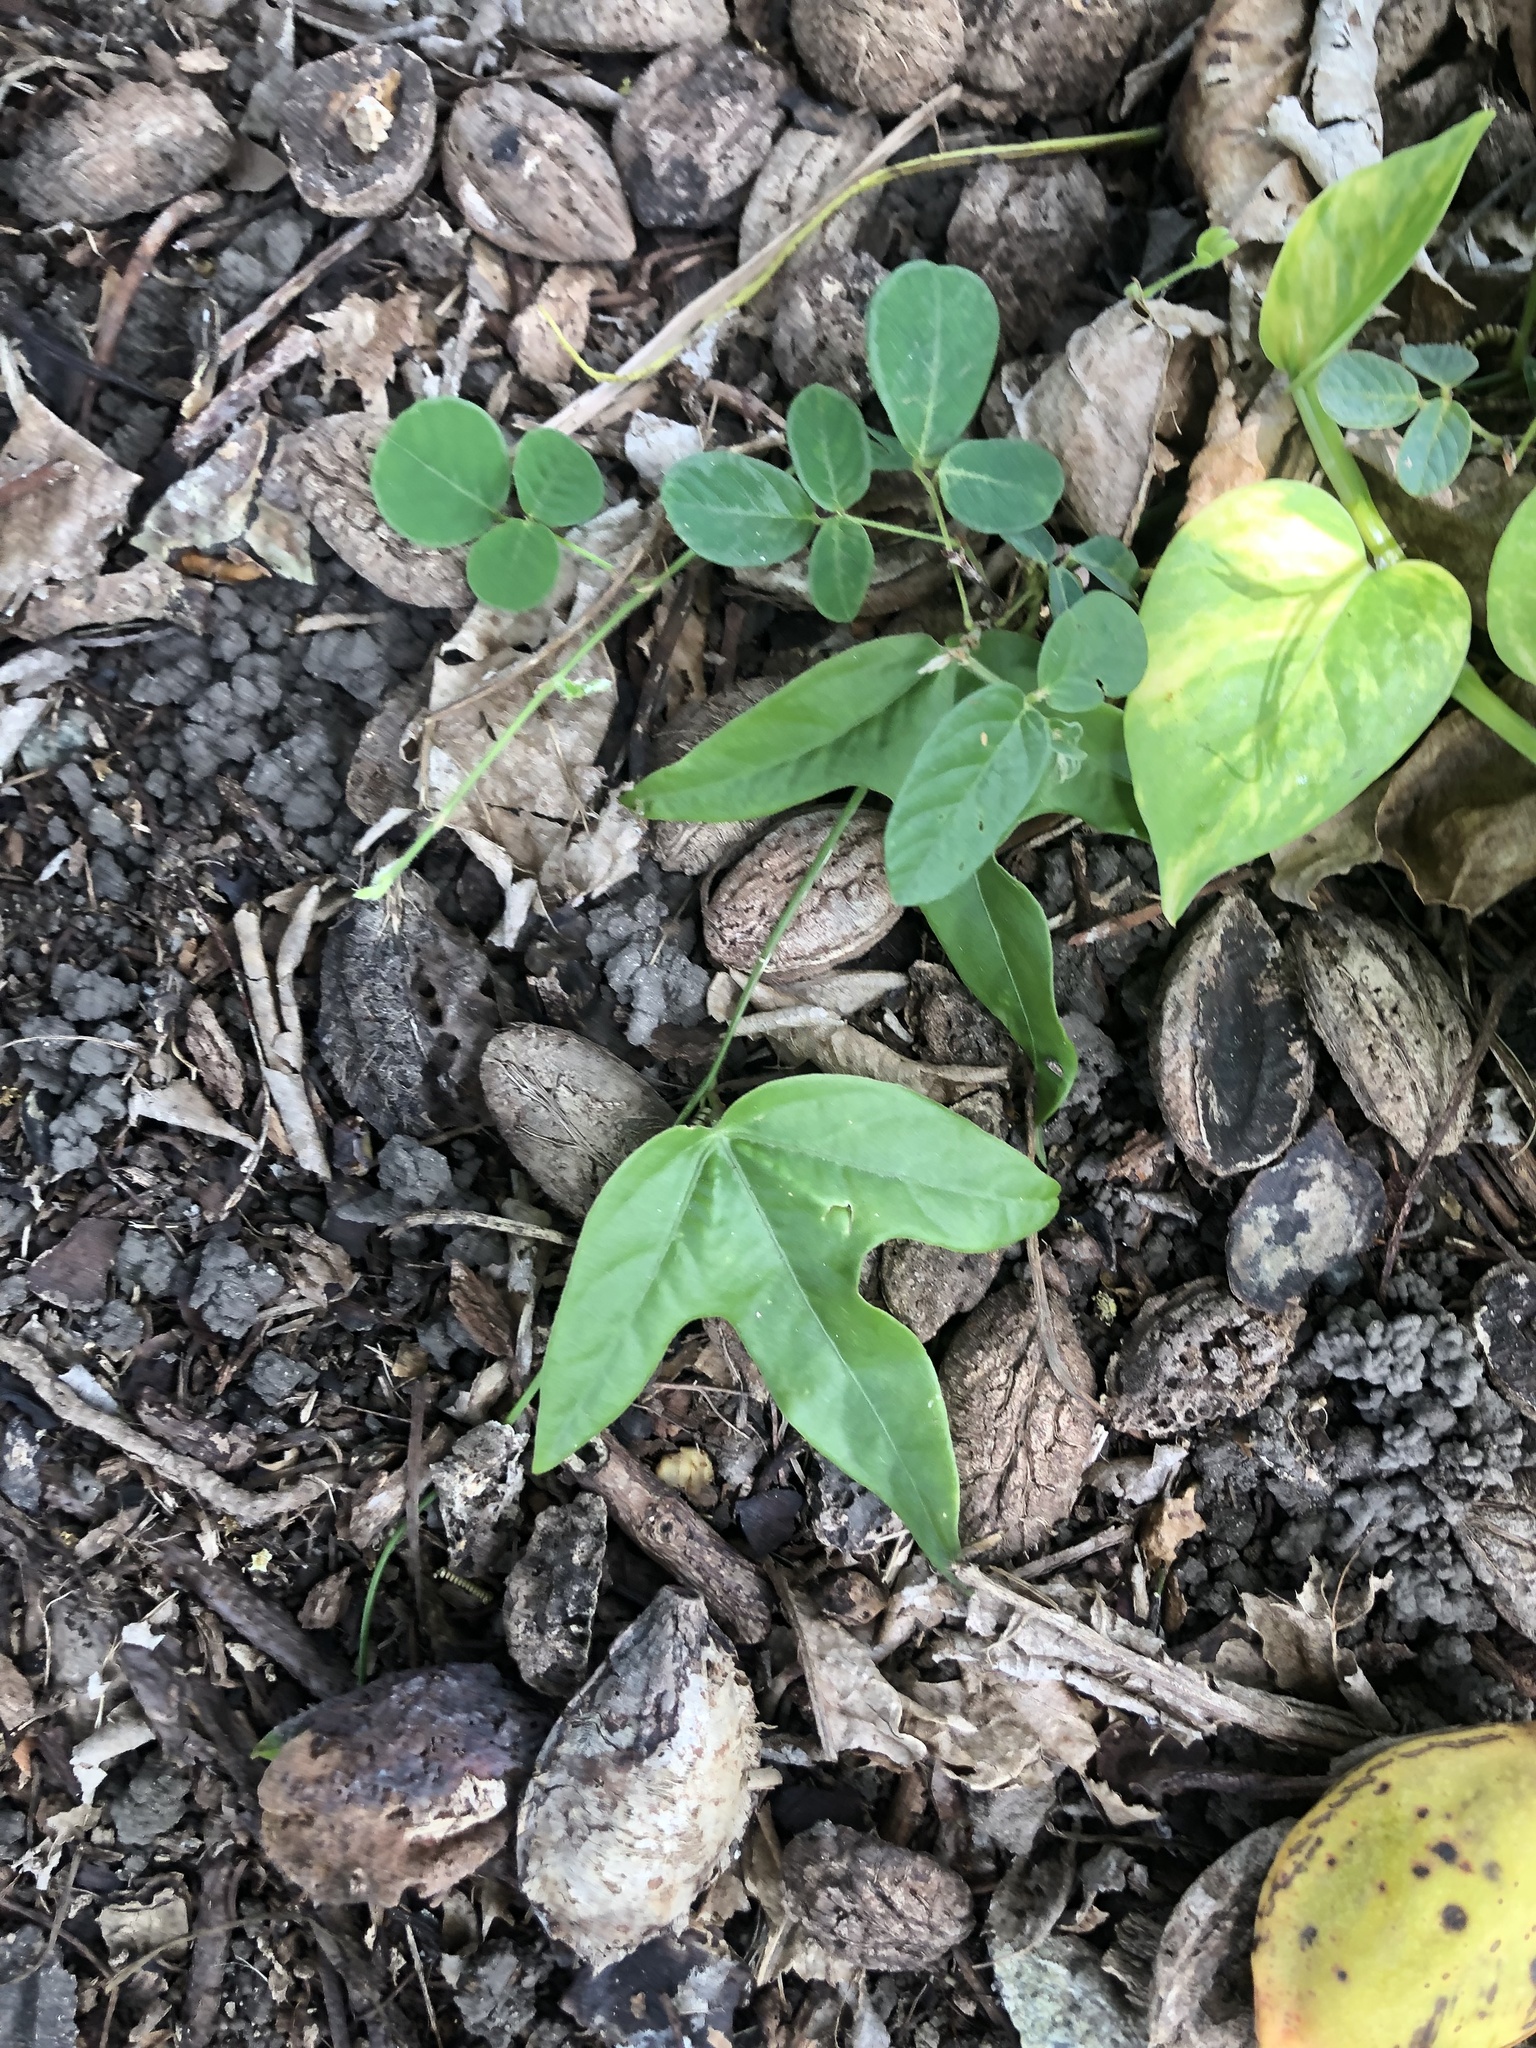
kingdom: Plantae
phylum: Tracheophyta
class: Magnoliopsida
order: Malpighiales
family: Passifloraceae
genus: Passiflora
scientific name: Passiflora suberosa
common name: Wild passionfruit
